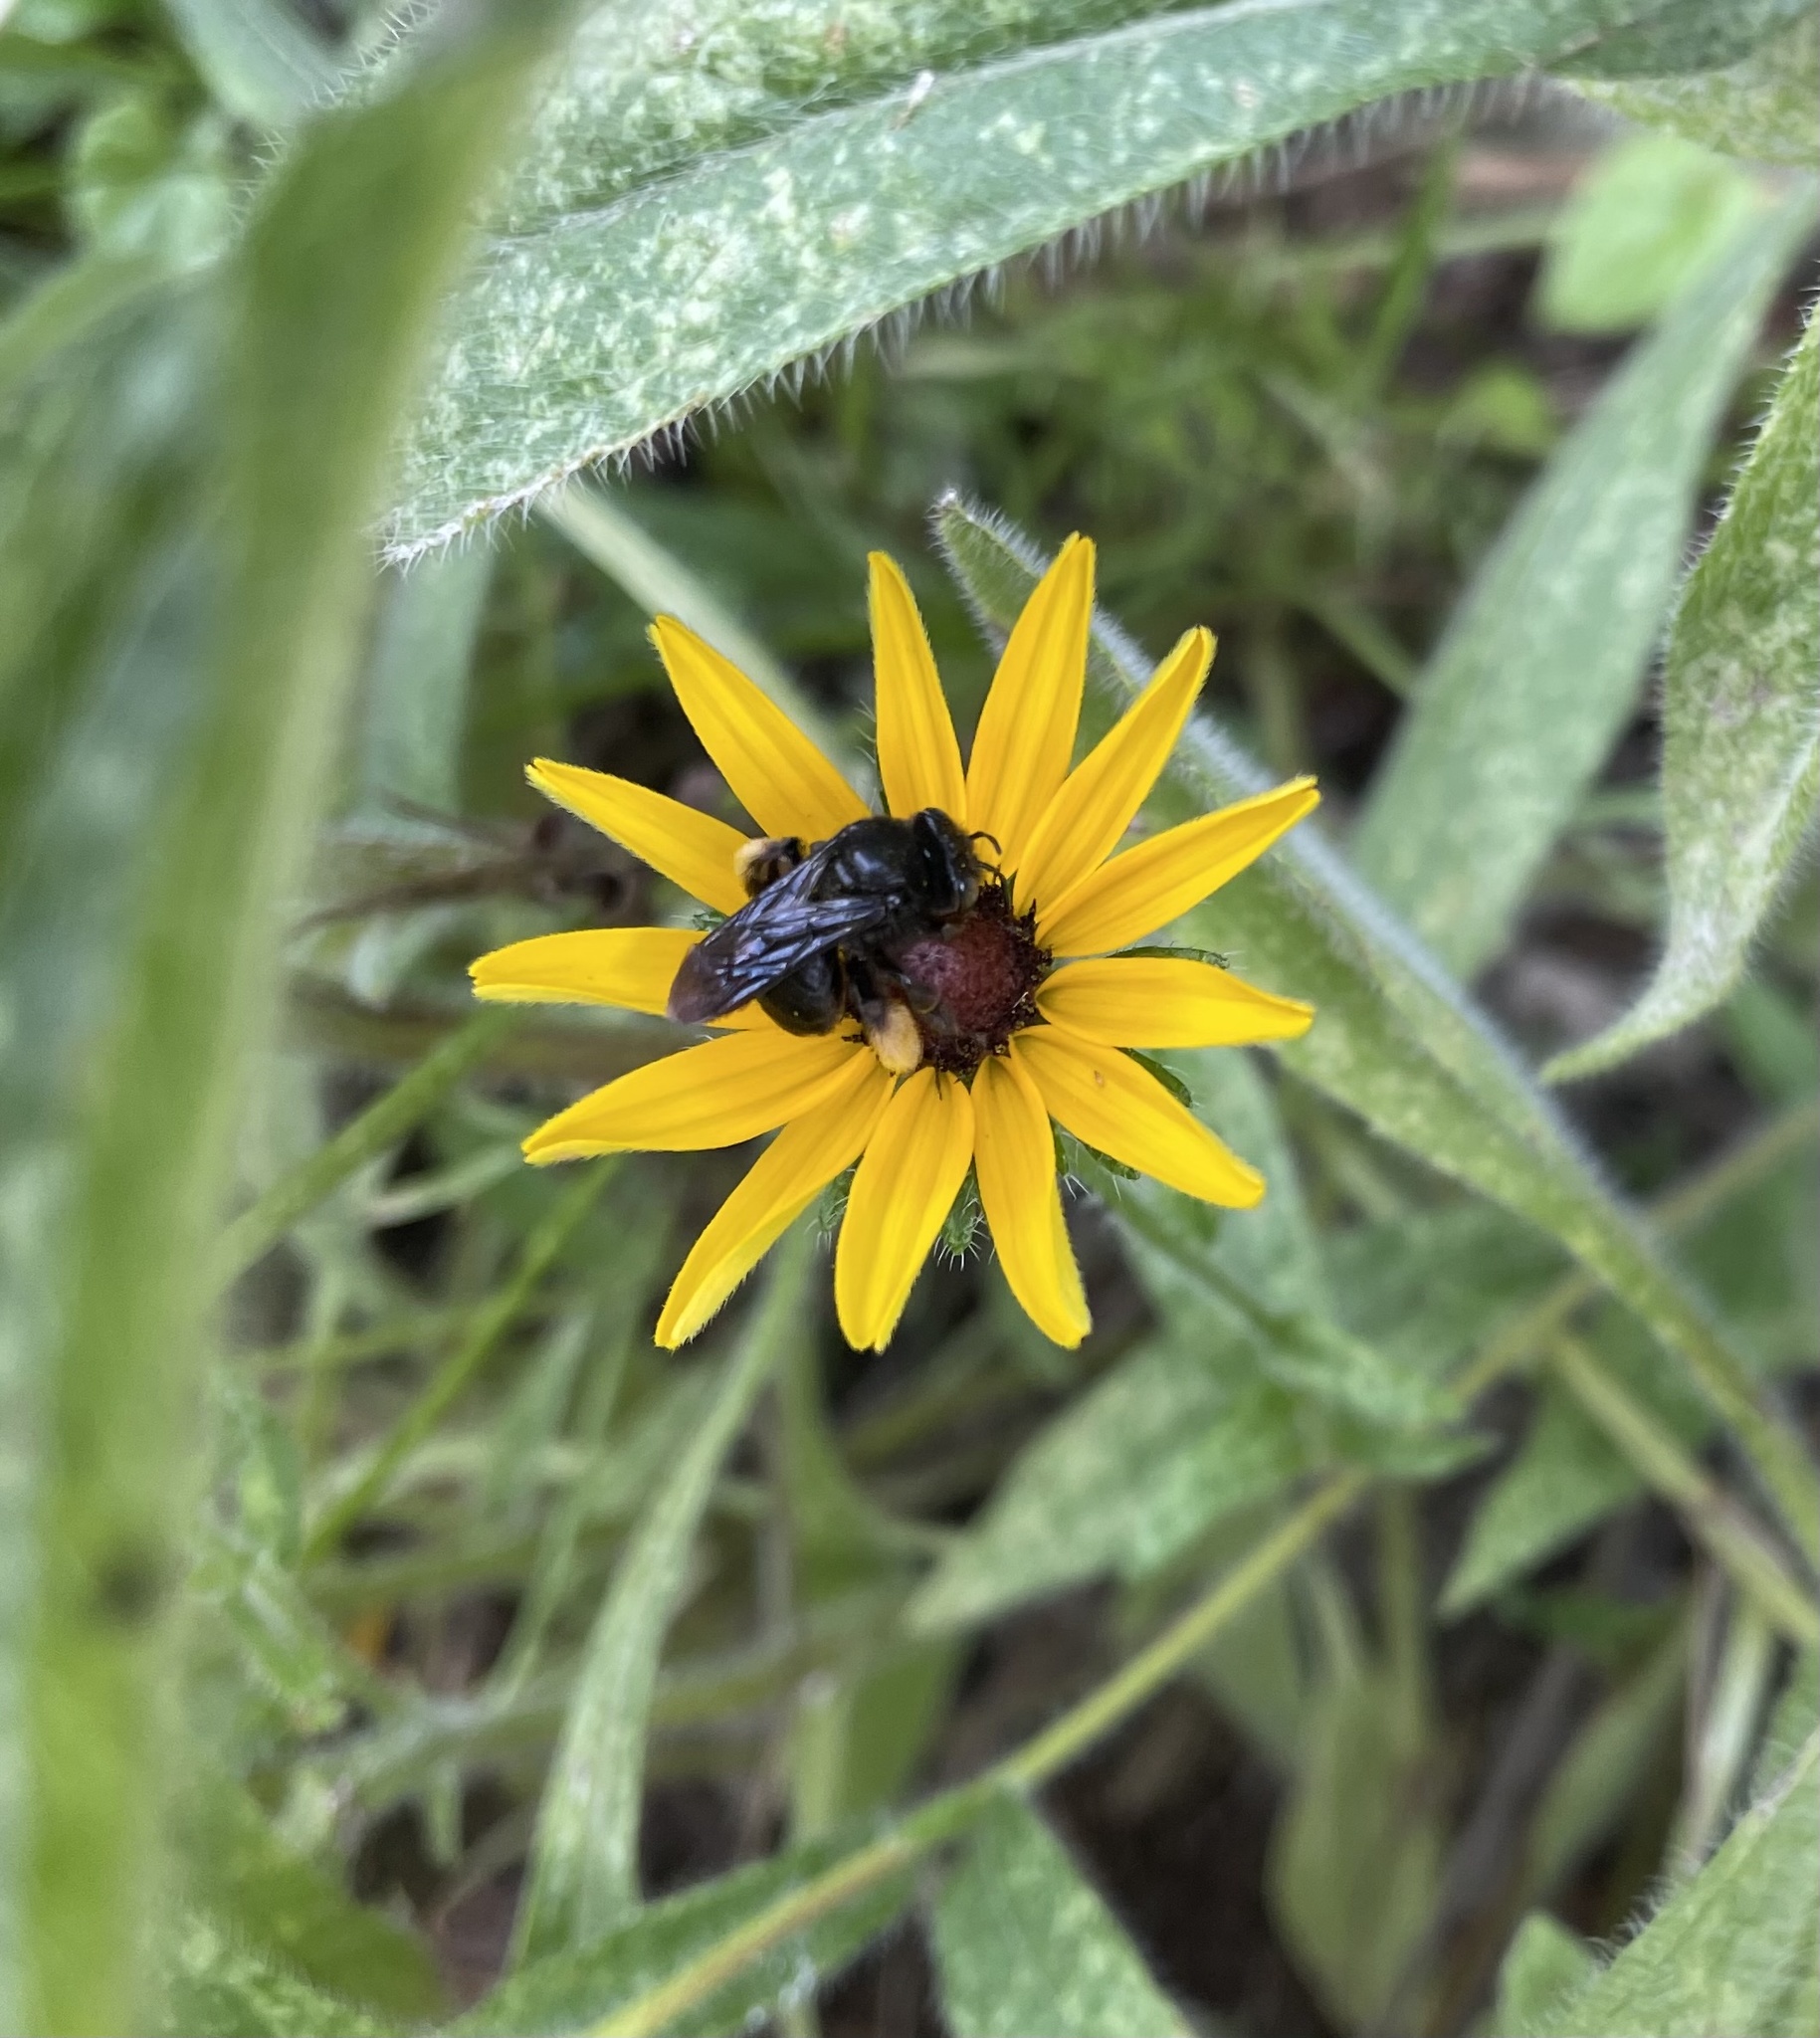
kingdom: Animalia
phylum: Arthropoda
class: Insecta
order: Hymenoptera
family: Apidae
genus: Melissodes
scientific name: Melissodes bimaculatus
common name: Two-spotted long-horned bee
